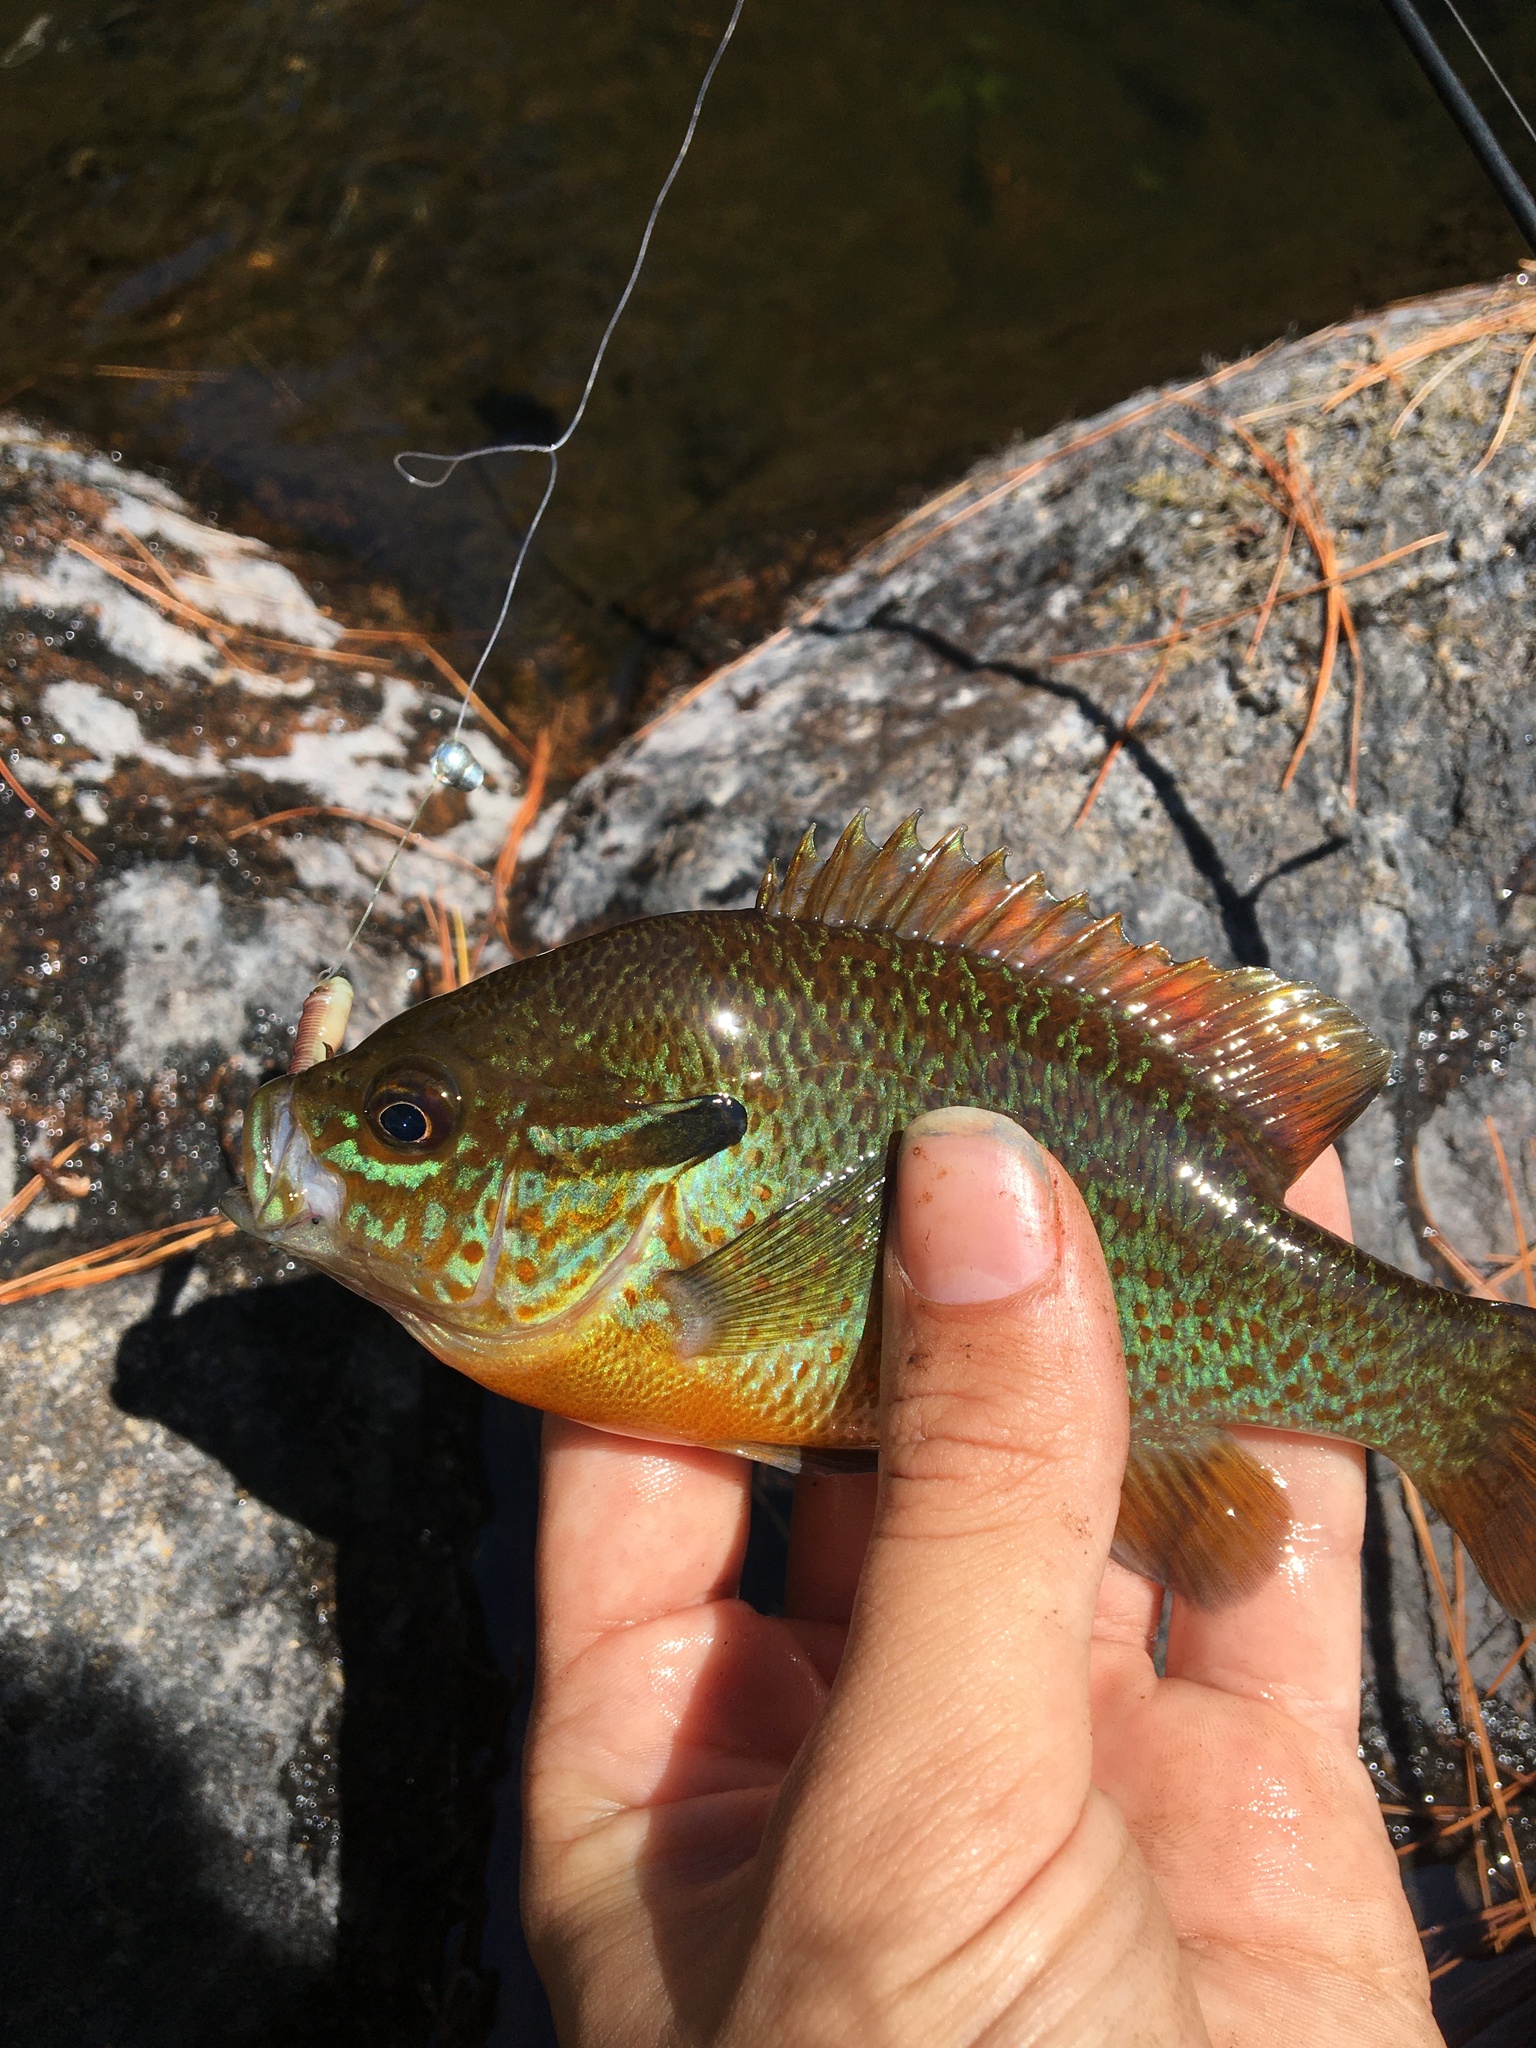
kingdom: Animalia
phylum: Chordata
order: Perciformes
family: Centrarchidae
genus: Lepomis
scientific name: Lepomis auritus
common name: Redbreast sunfish
